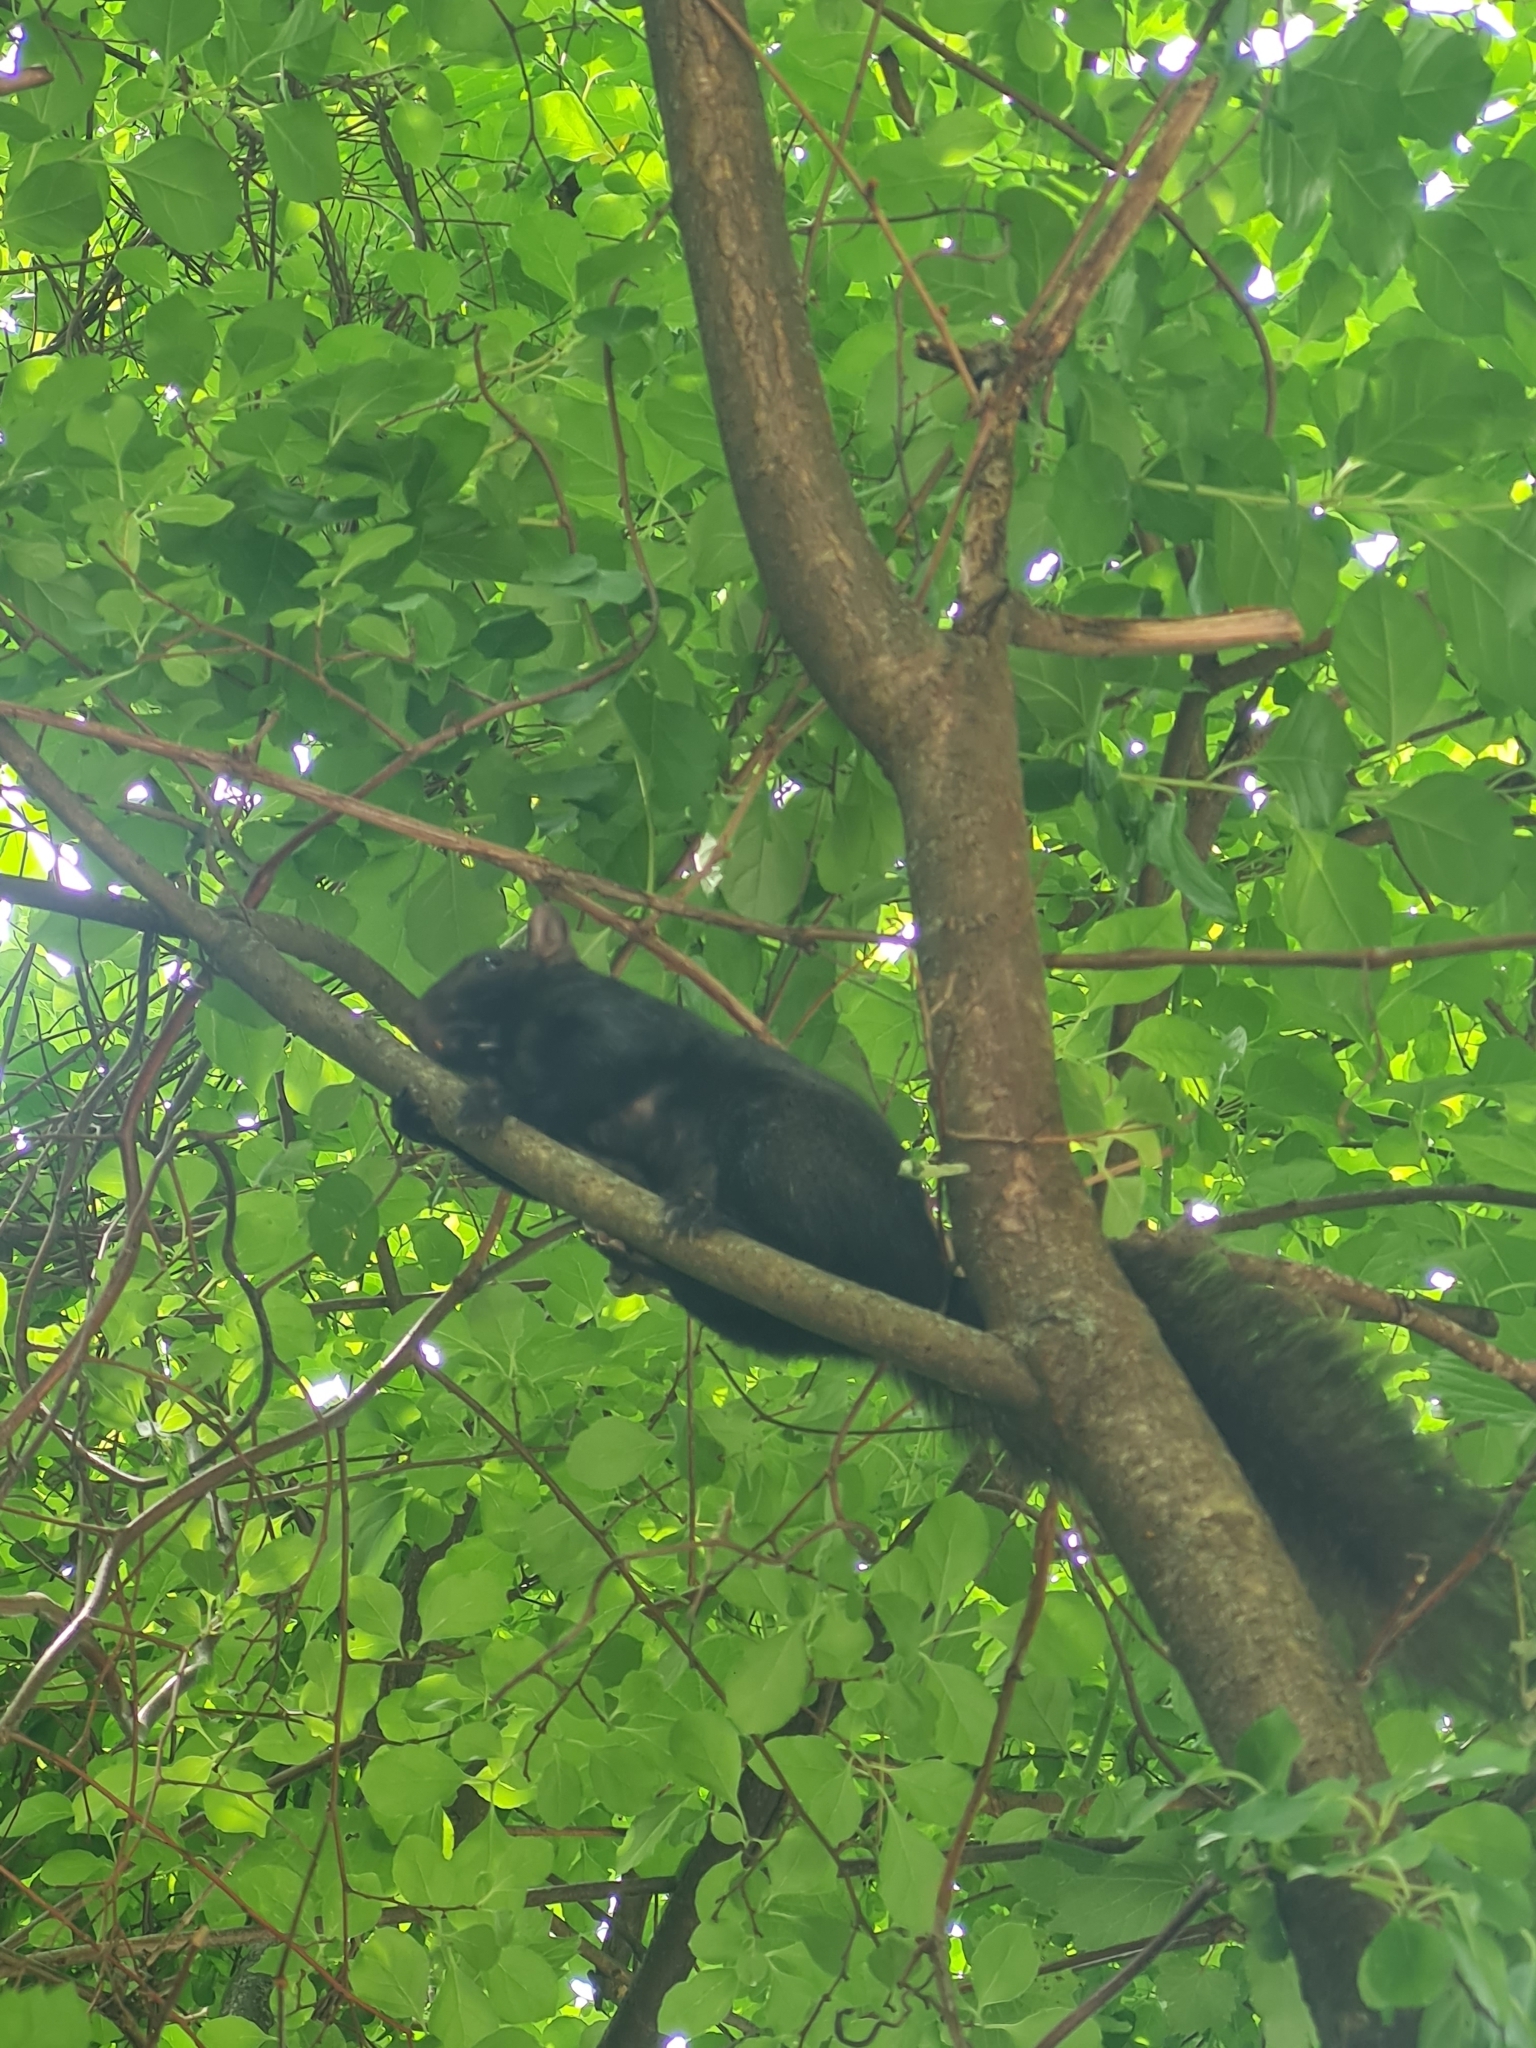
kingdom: Animalia
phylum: Chordata
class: Mammalia
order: Rodentia
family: Sciuridae
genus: Sciurus
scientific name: Sciurus carolinensis
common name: Eastern gray squirrel
